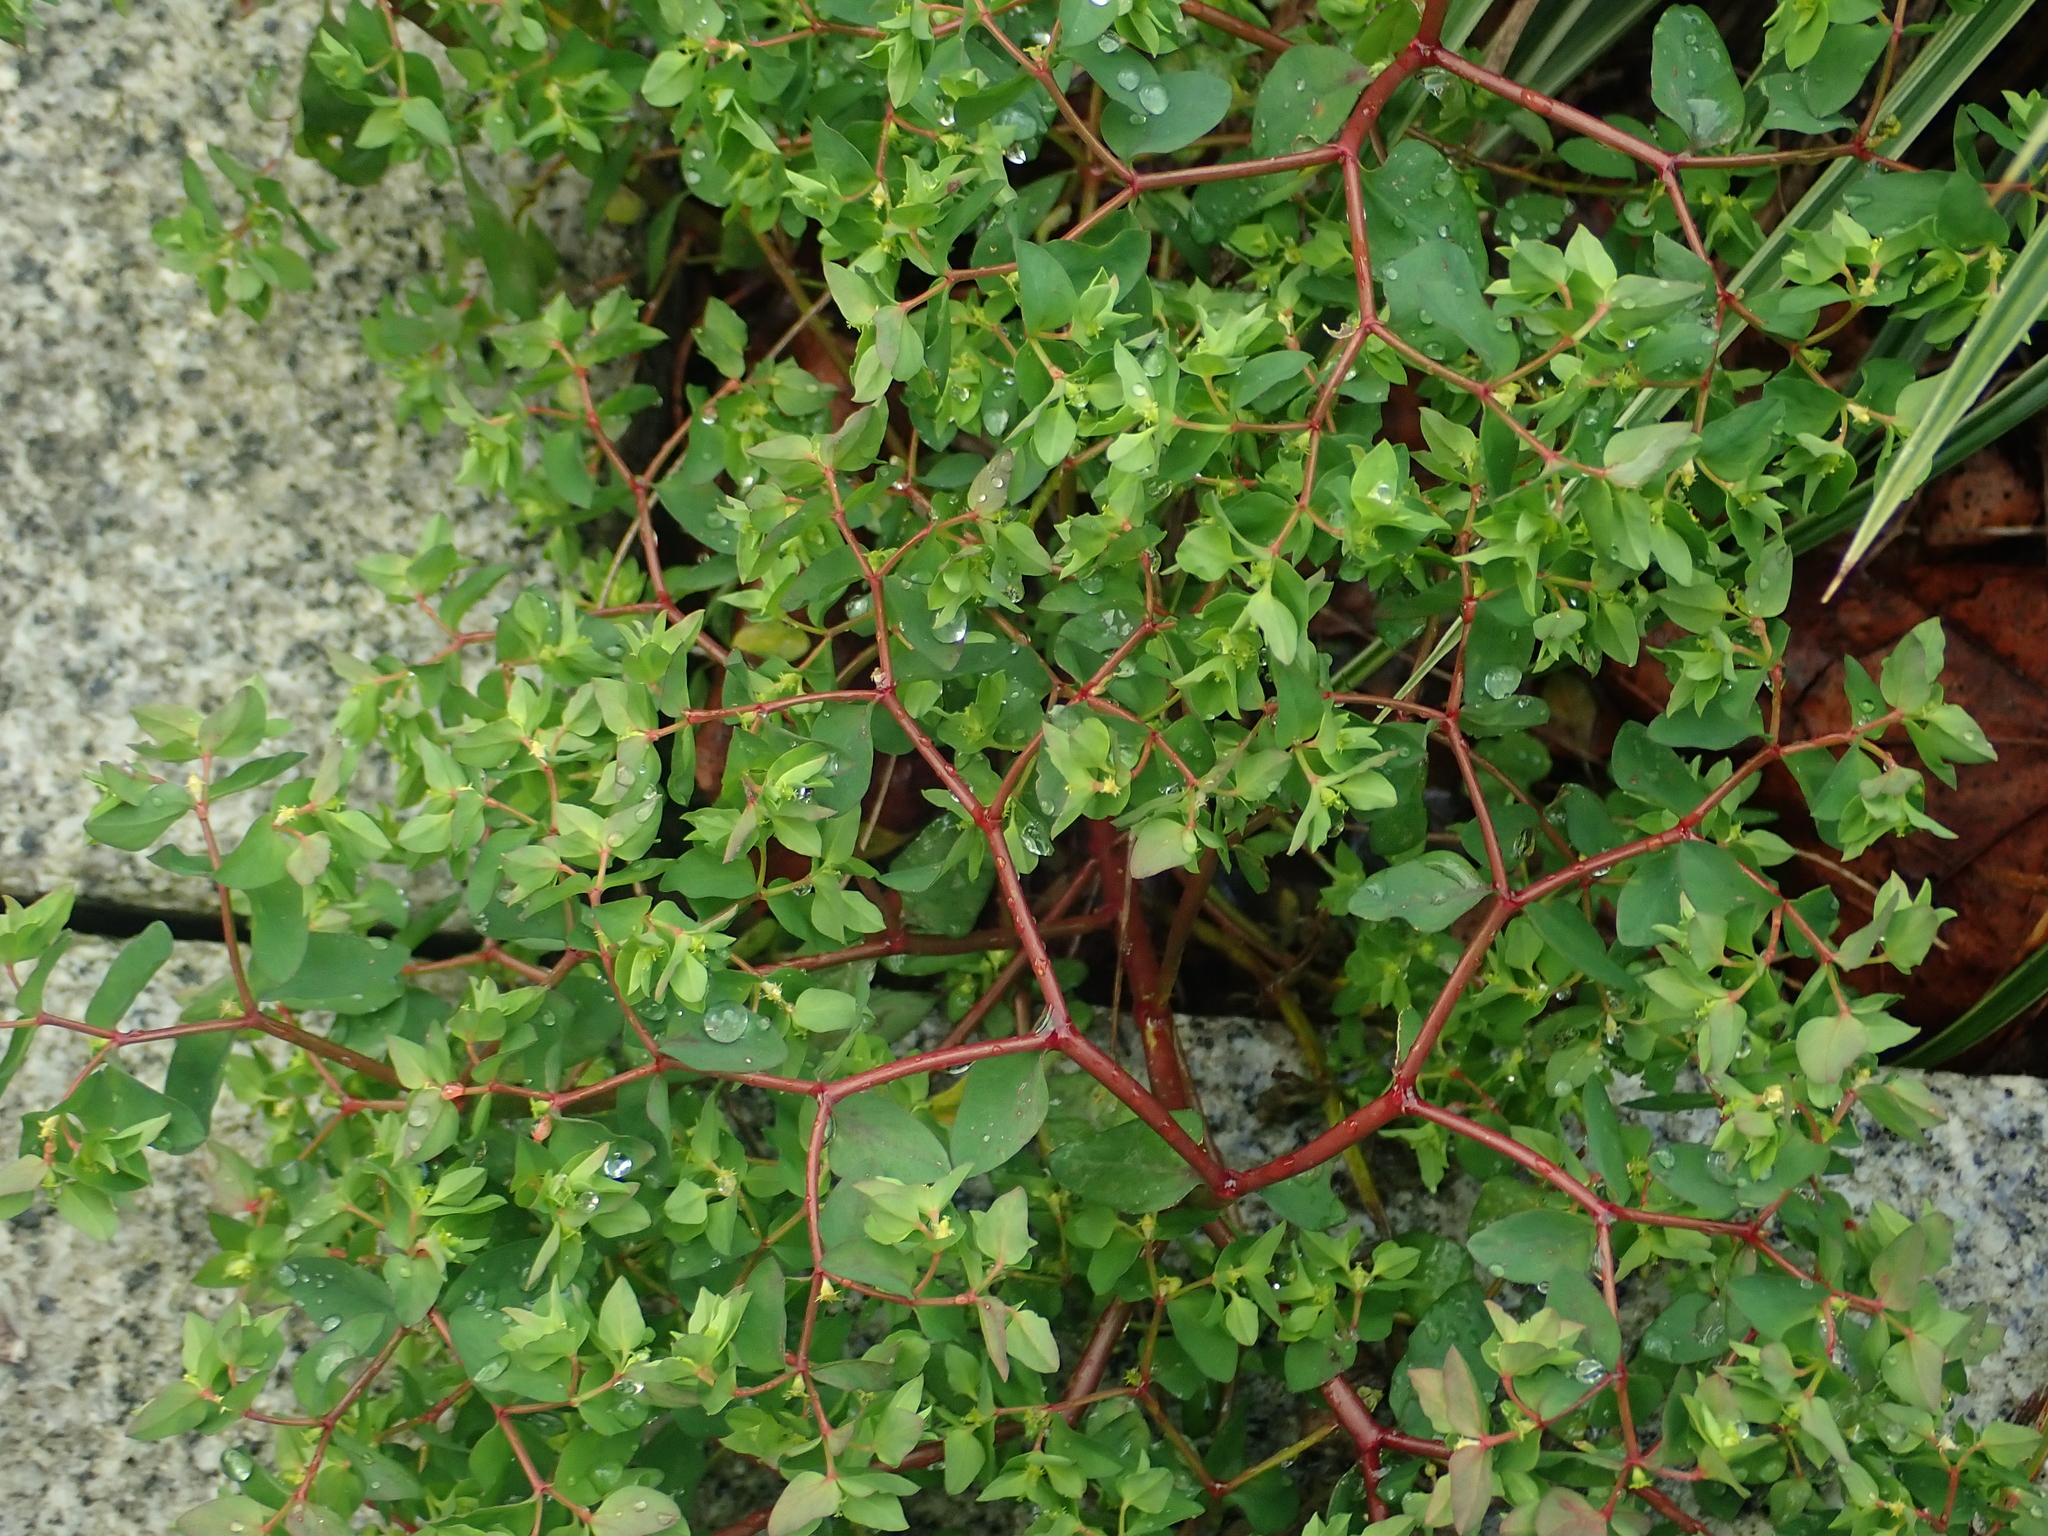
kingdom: Plantae
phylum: Tracheophyta
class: Magnoliopsida
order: Malpighiales
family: Euphorbiaceae
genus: Euphorbia
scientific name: Euphorbia peplus
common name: Petty spurge
